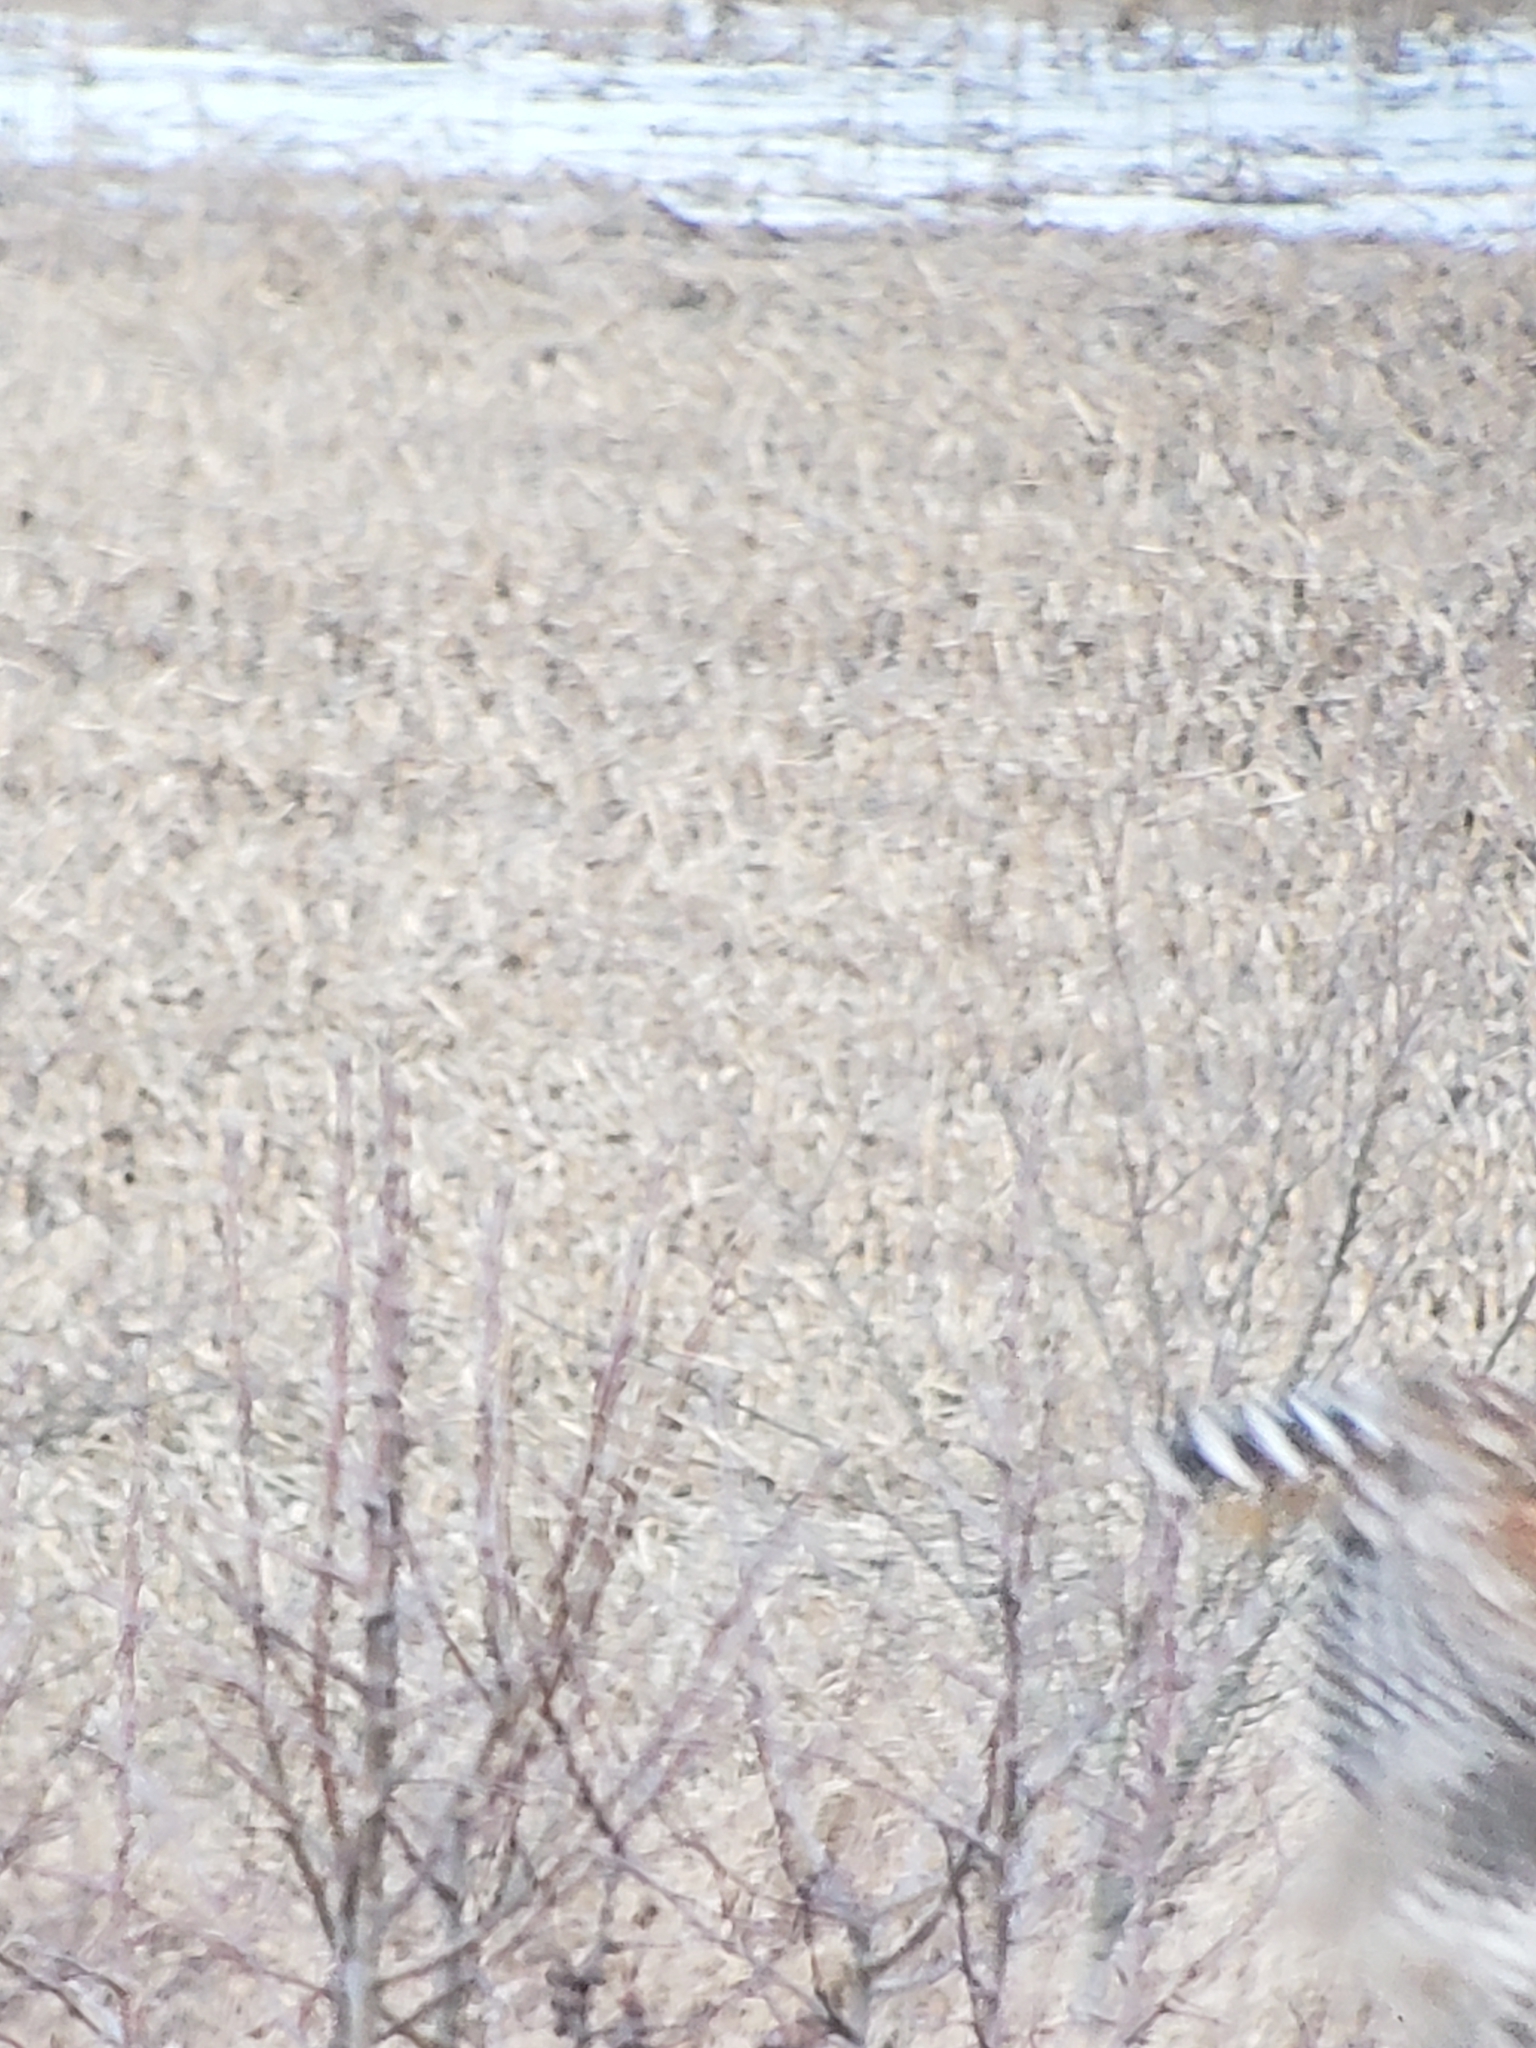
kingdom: Animalia
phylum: Chordata
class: Aves
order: Accipitriformes
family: Accipitridae
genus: Buteo
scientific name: Buteo lineatus
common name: Red-shouldered hawk
